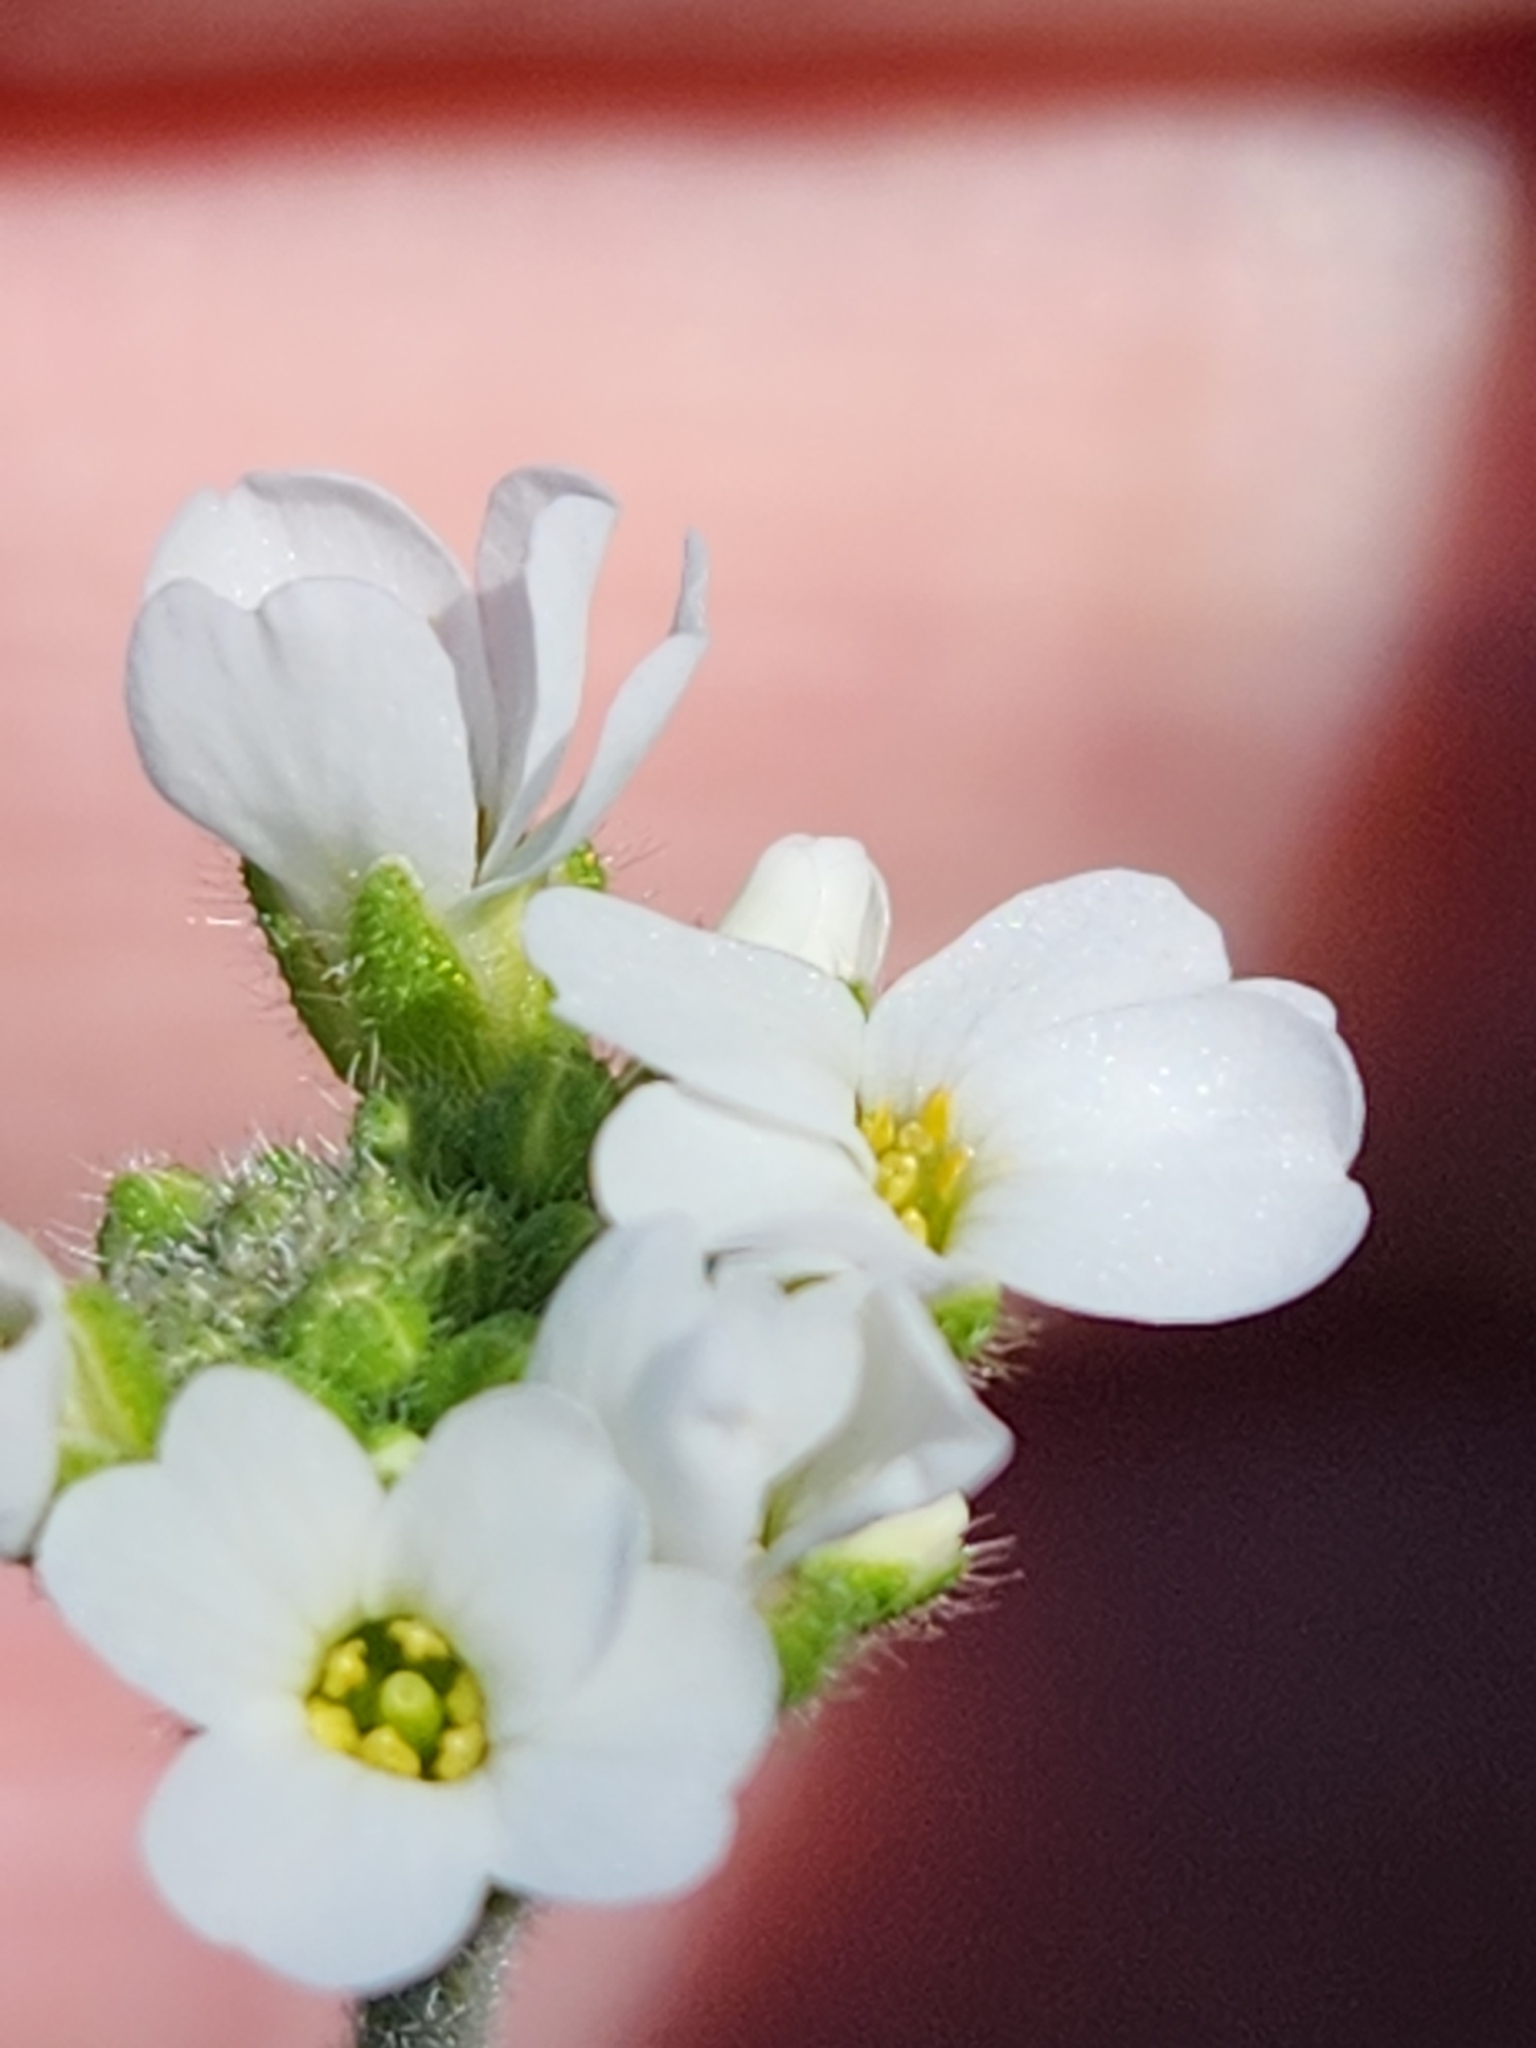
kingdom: Plantae
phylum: Tracheophyta
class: Magnoliopsida
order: Brassicales
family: Brassicaceae
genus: Tomostima
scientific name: Tomostima cuneifolia
